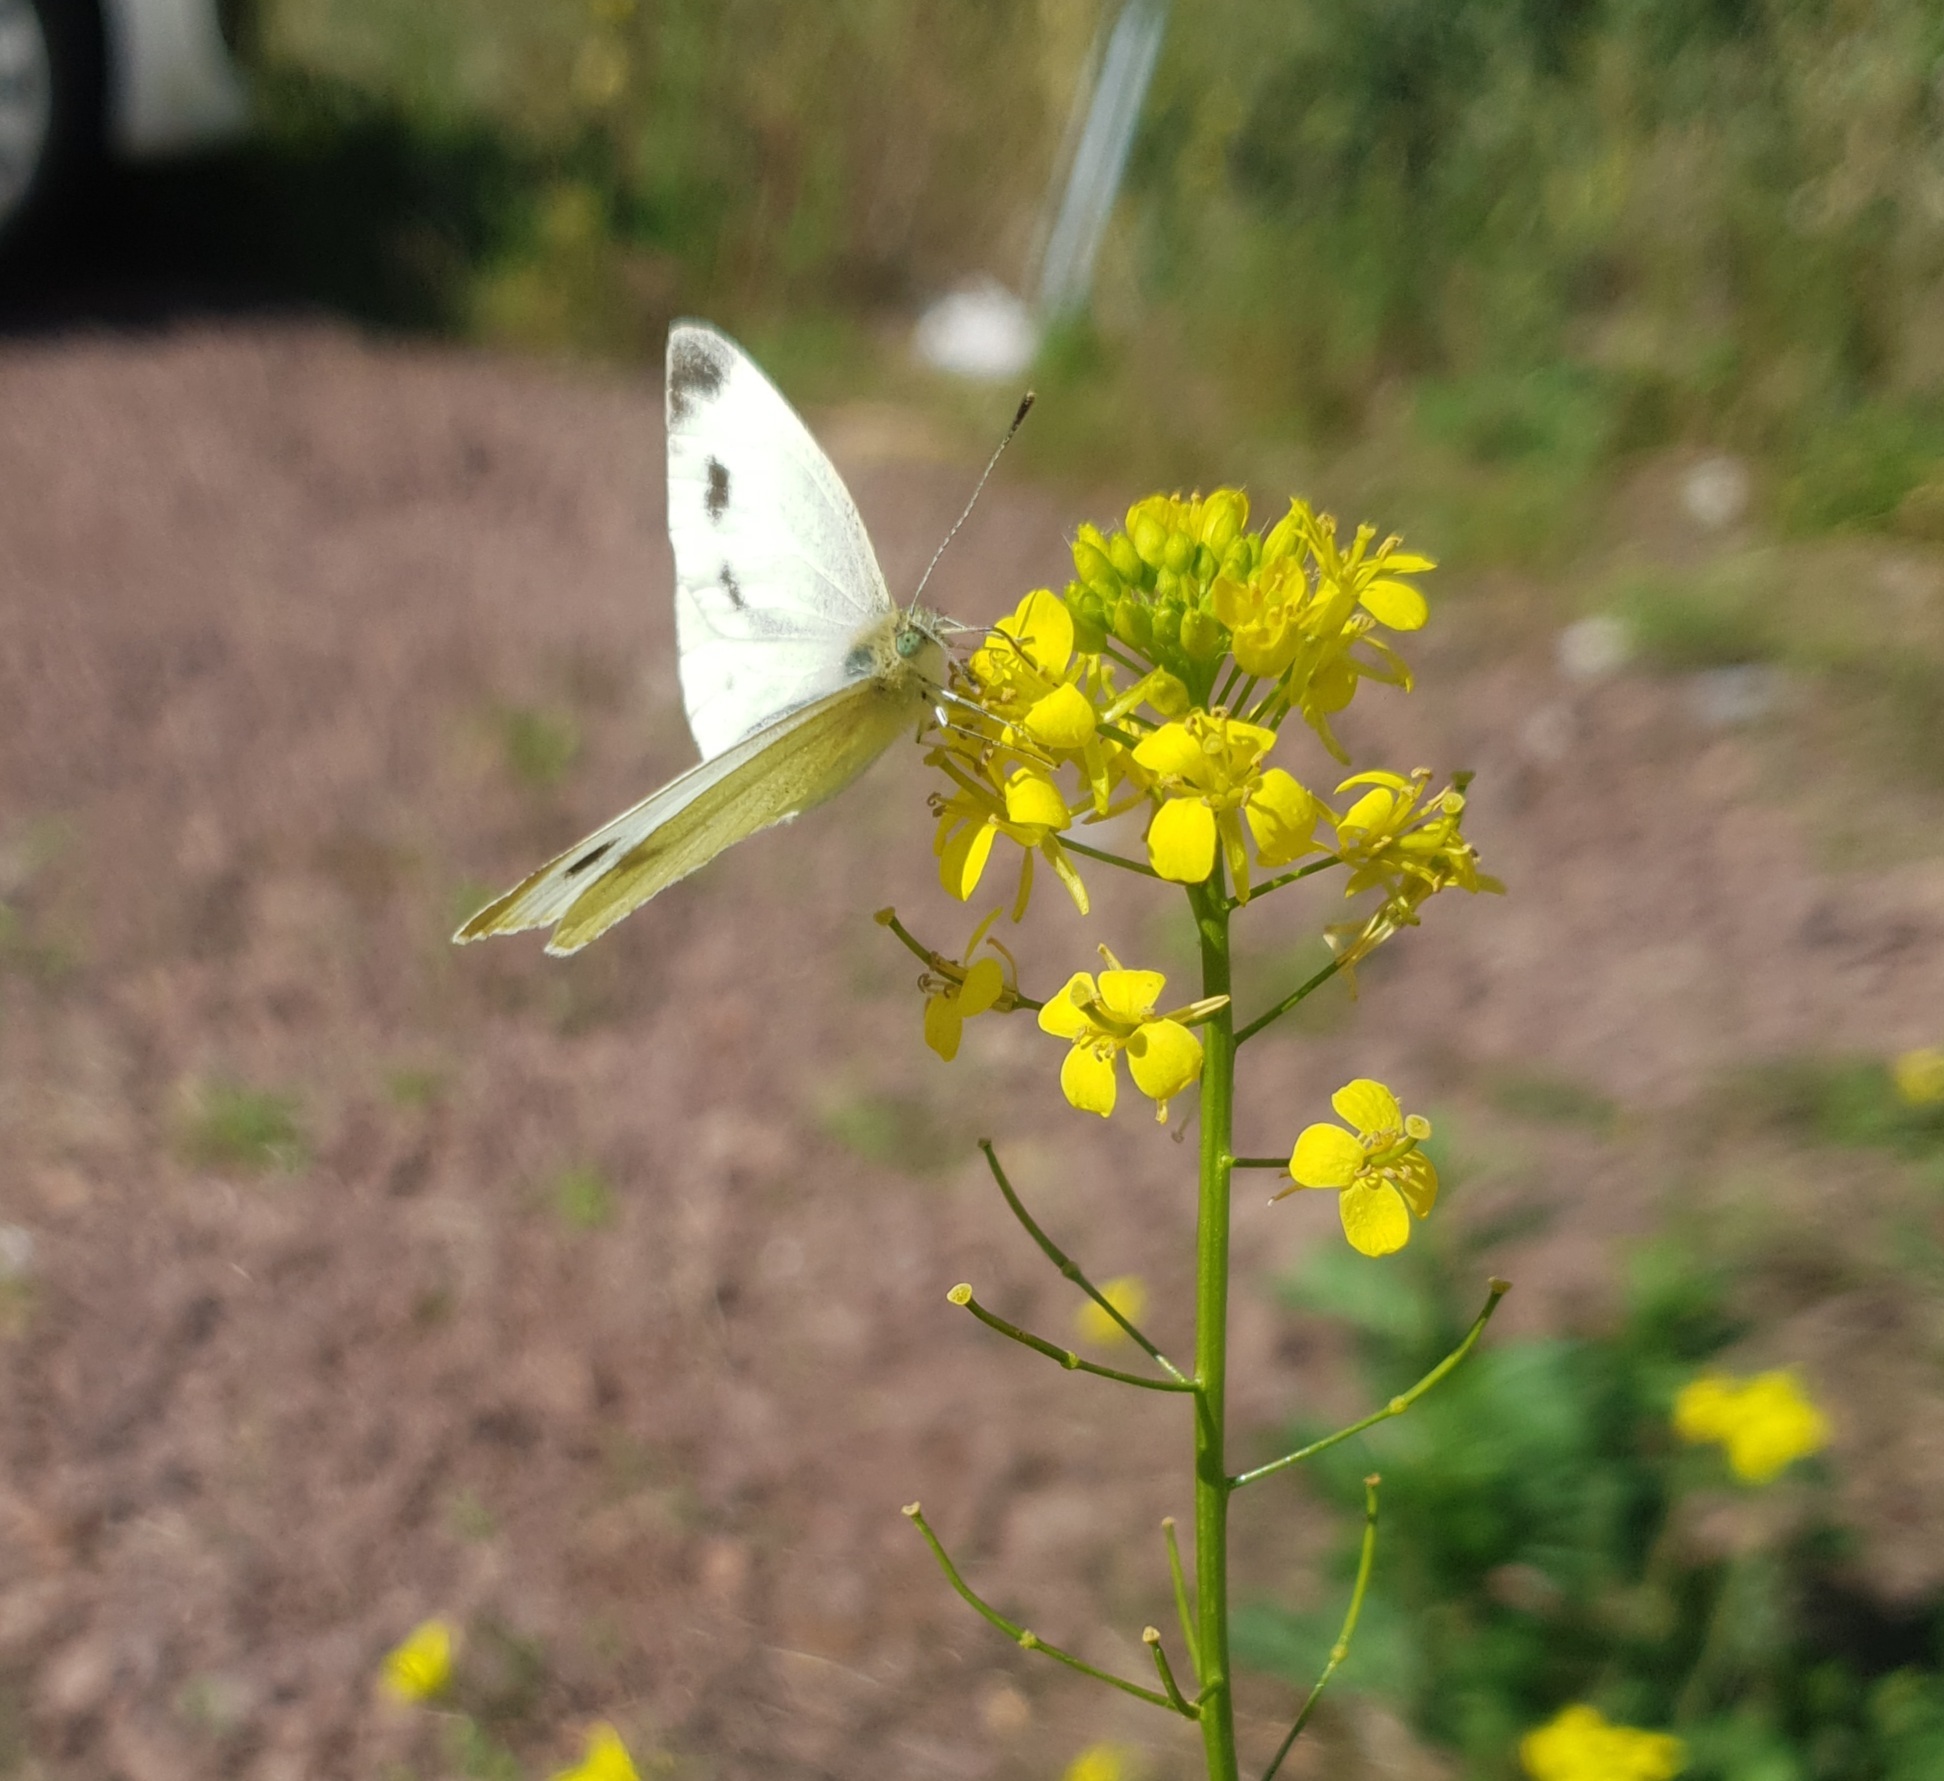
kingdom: Animalia
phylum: Arthropoda
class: Insecta
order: Lepidoptera
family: Pieridae
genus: Pieris
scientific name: Pieris mannii
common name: Southern small white
